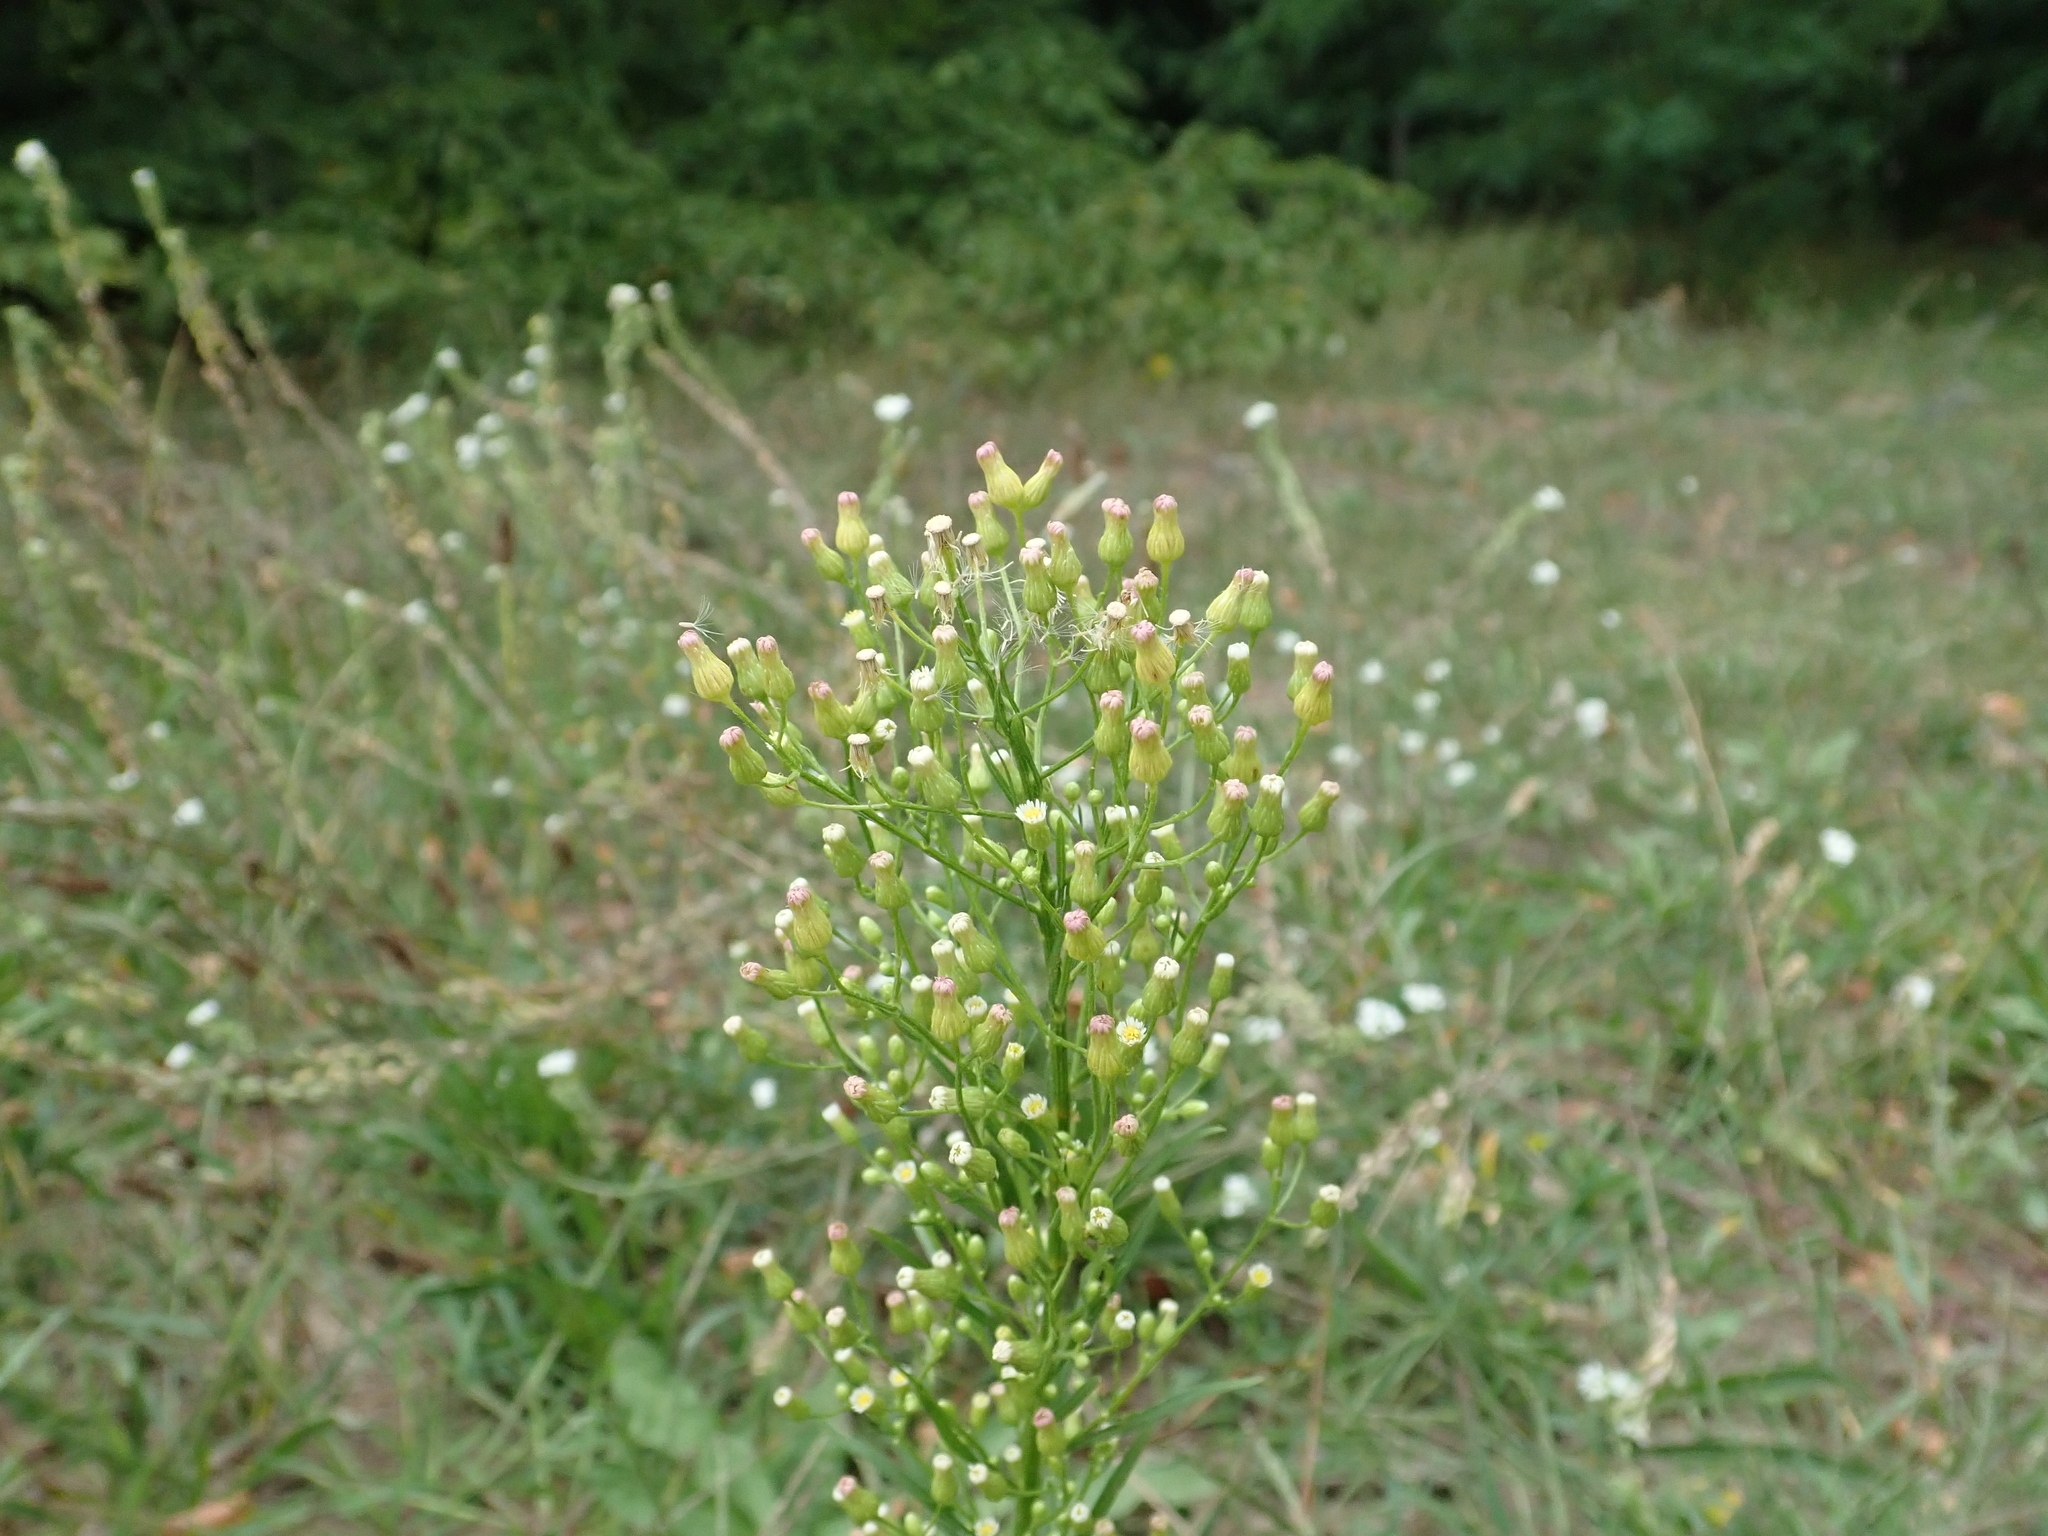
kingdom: Plantae
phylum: Tracheophyta
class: Magnoliopsida
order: Asterales
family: Asteraceae
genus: Erigeron
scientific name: Erigeron canadensis
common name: Canadian fleabane
